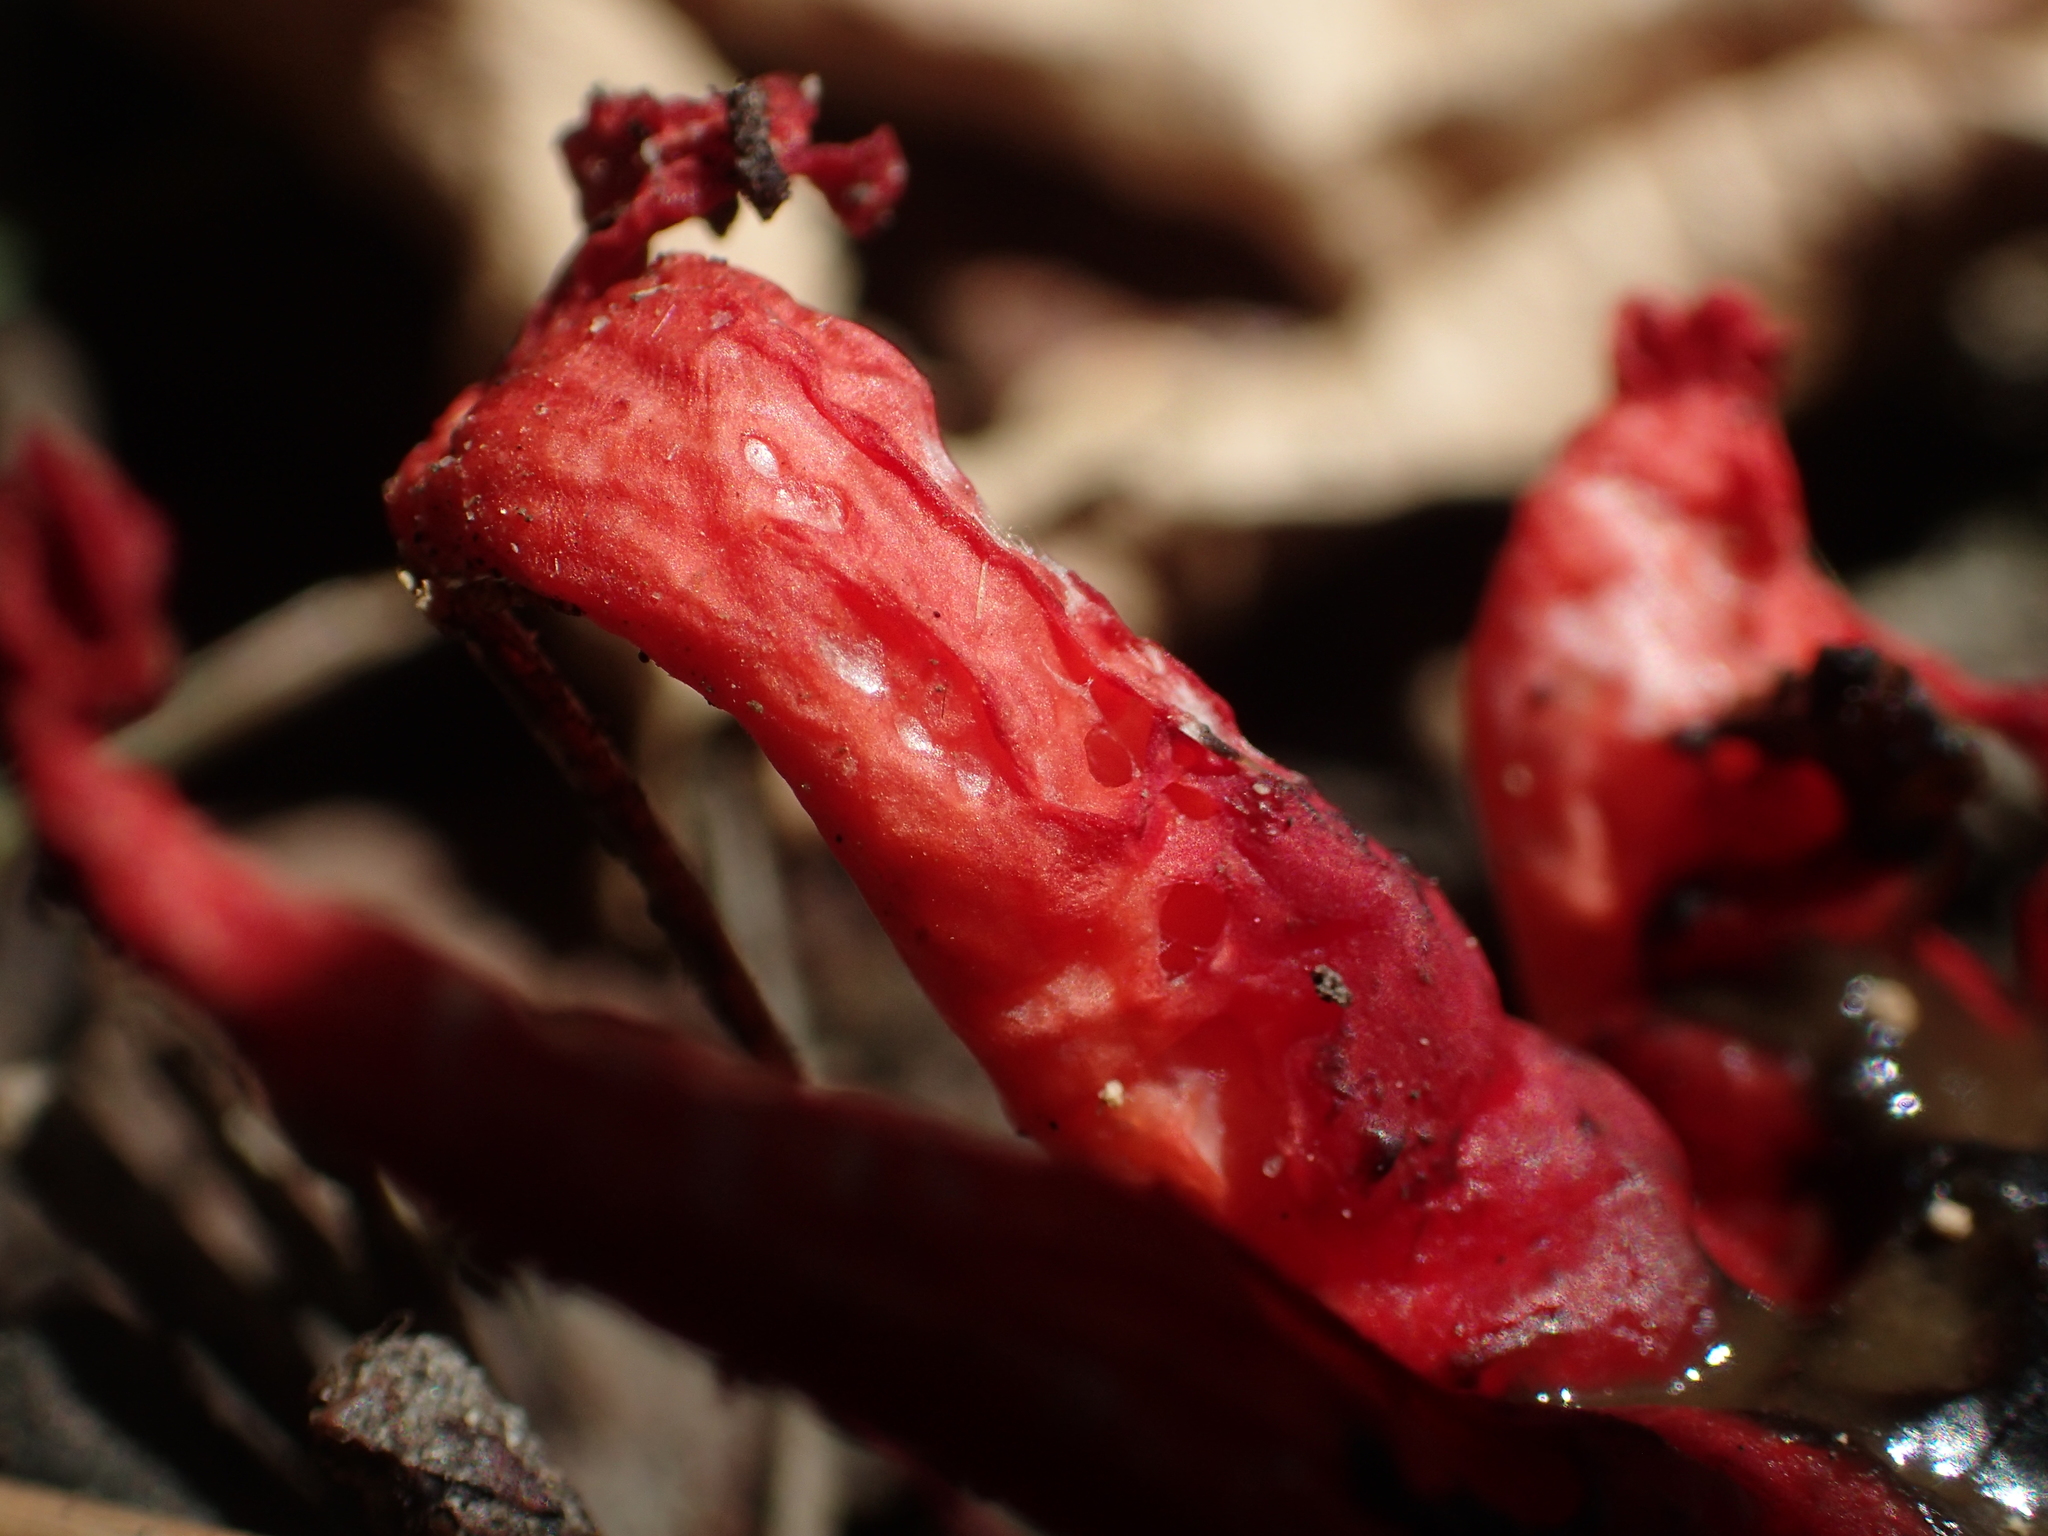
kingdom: Fungi
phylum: Basidiomycota
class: Agaricomycetes
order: Phallales
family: Phallaceae
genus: Aseroe
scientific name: Aseroe rubra
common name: Starfish fungus
